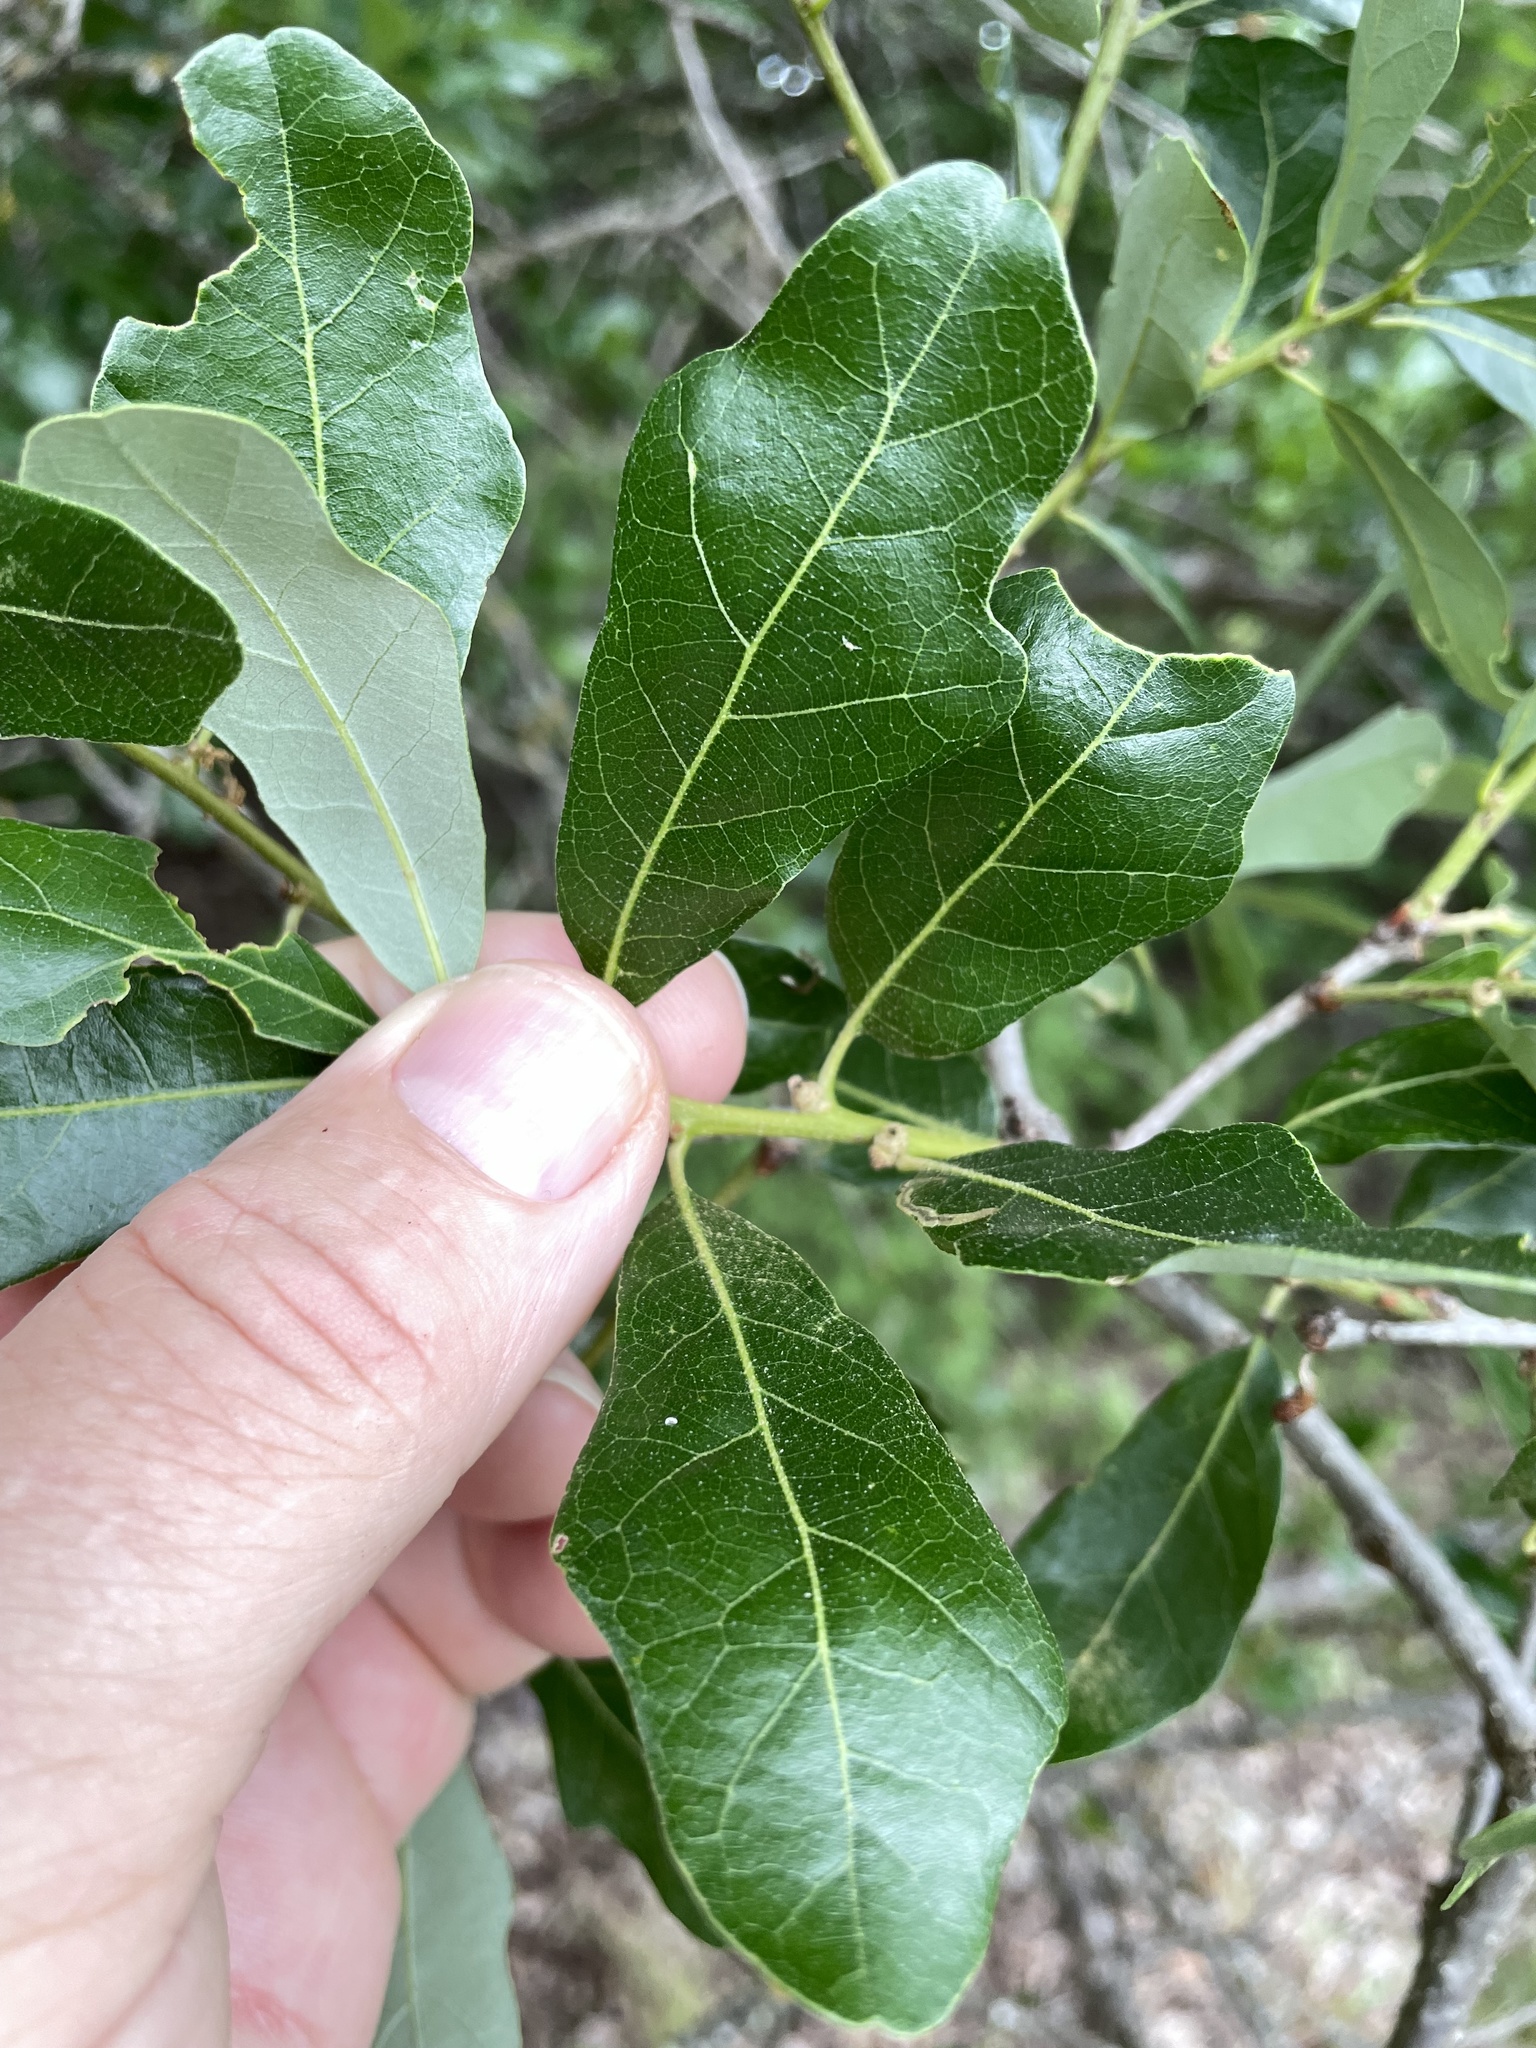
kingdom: Plantae
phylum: Tracheophyta
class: Magnoliopsida
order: Fagales
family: Fagaceae
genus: Quercus
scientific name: Quercus sinuata
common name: Durand oak
